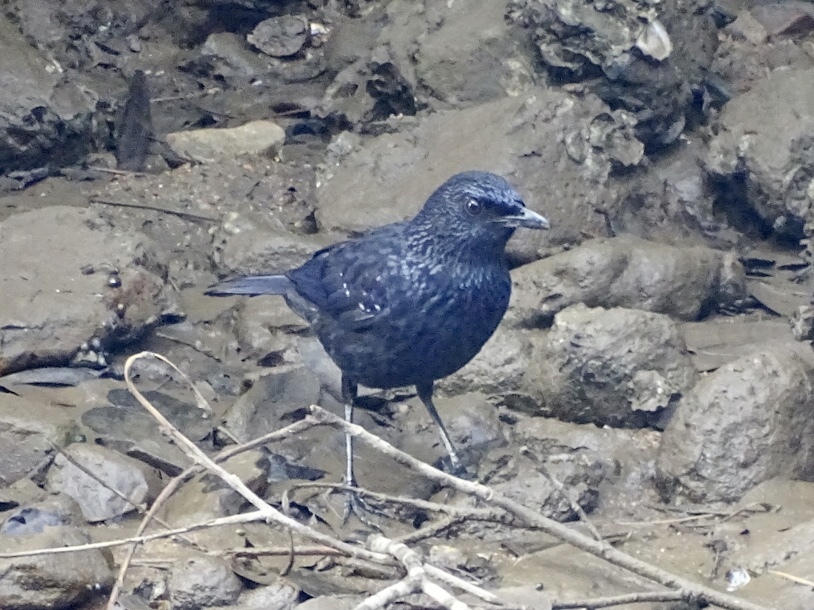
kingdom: Animalia
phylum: Chordata
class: Aves
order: Passeriformes
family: Muscicapidae
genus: Myophonus
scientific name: Myophonus caeruleus
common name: Blue whistling-thrush
